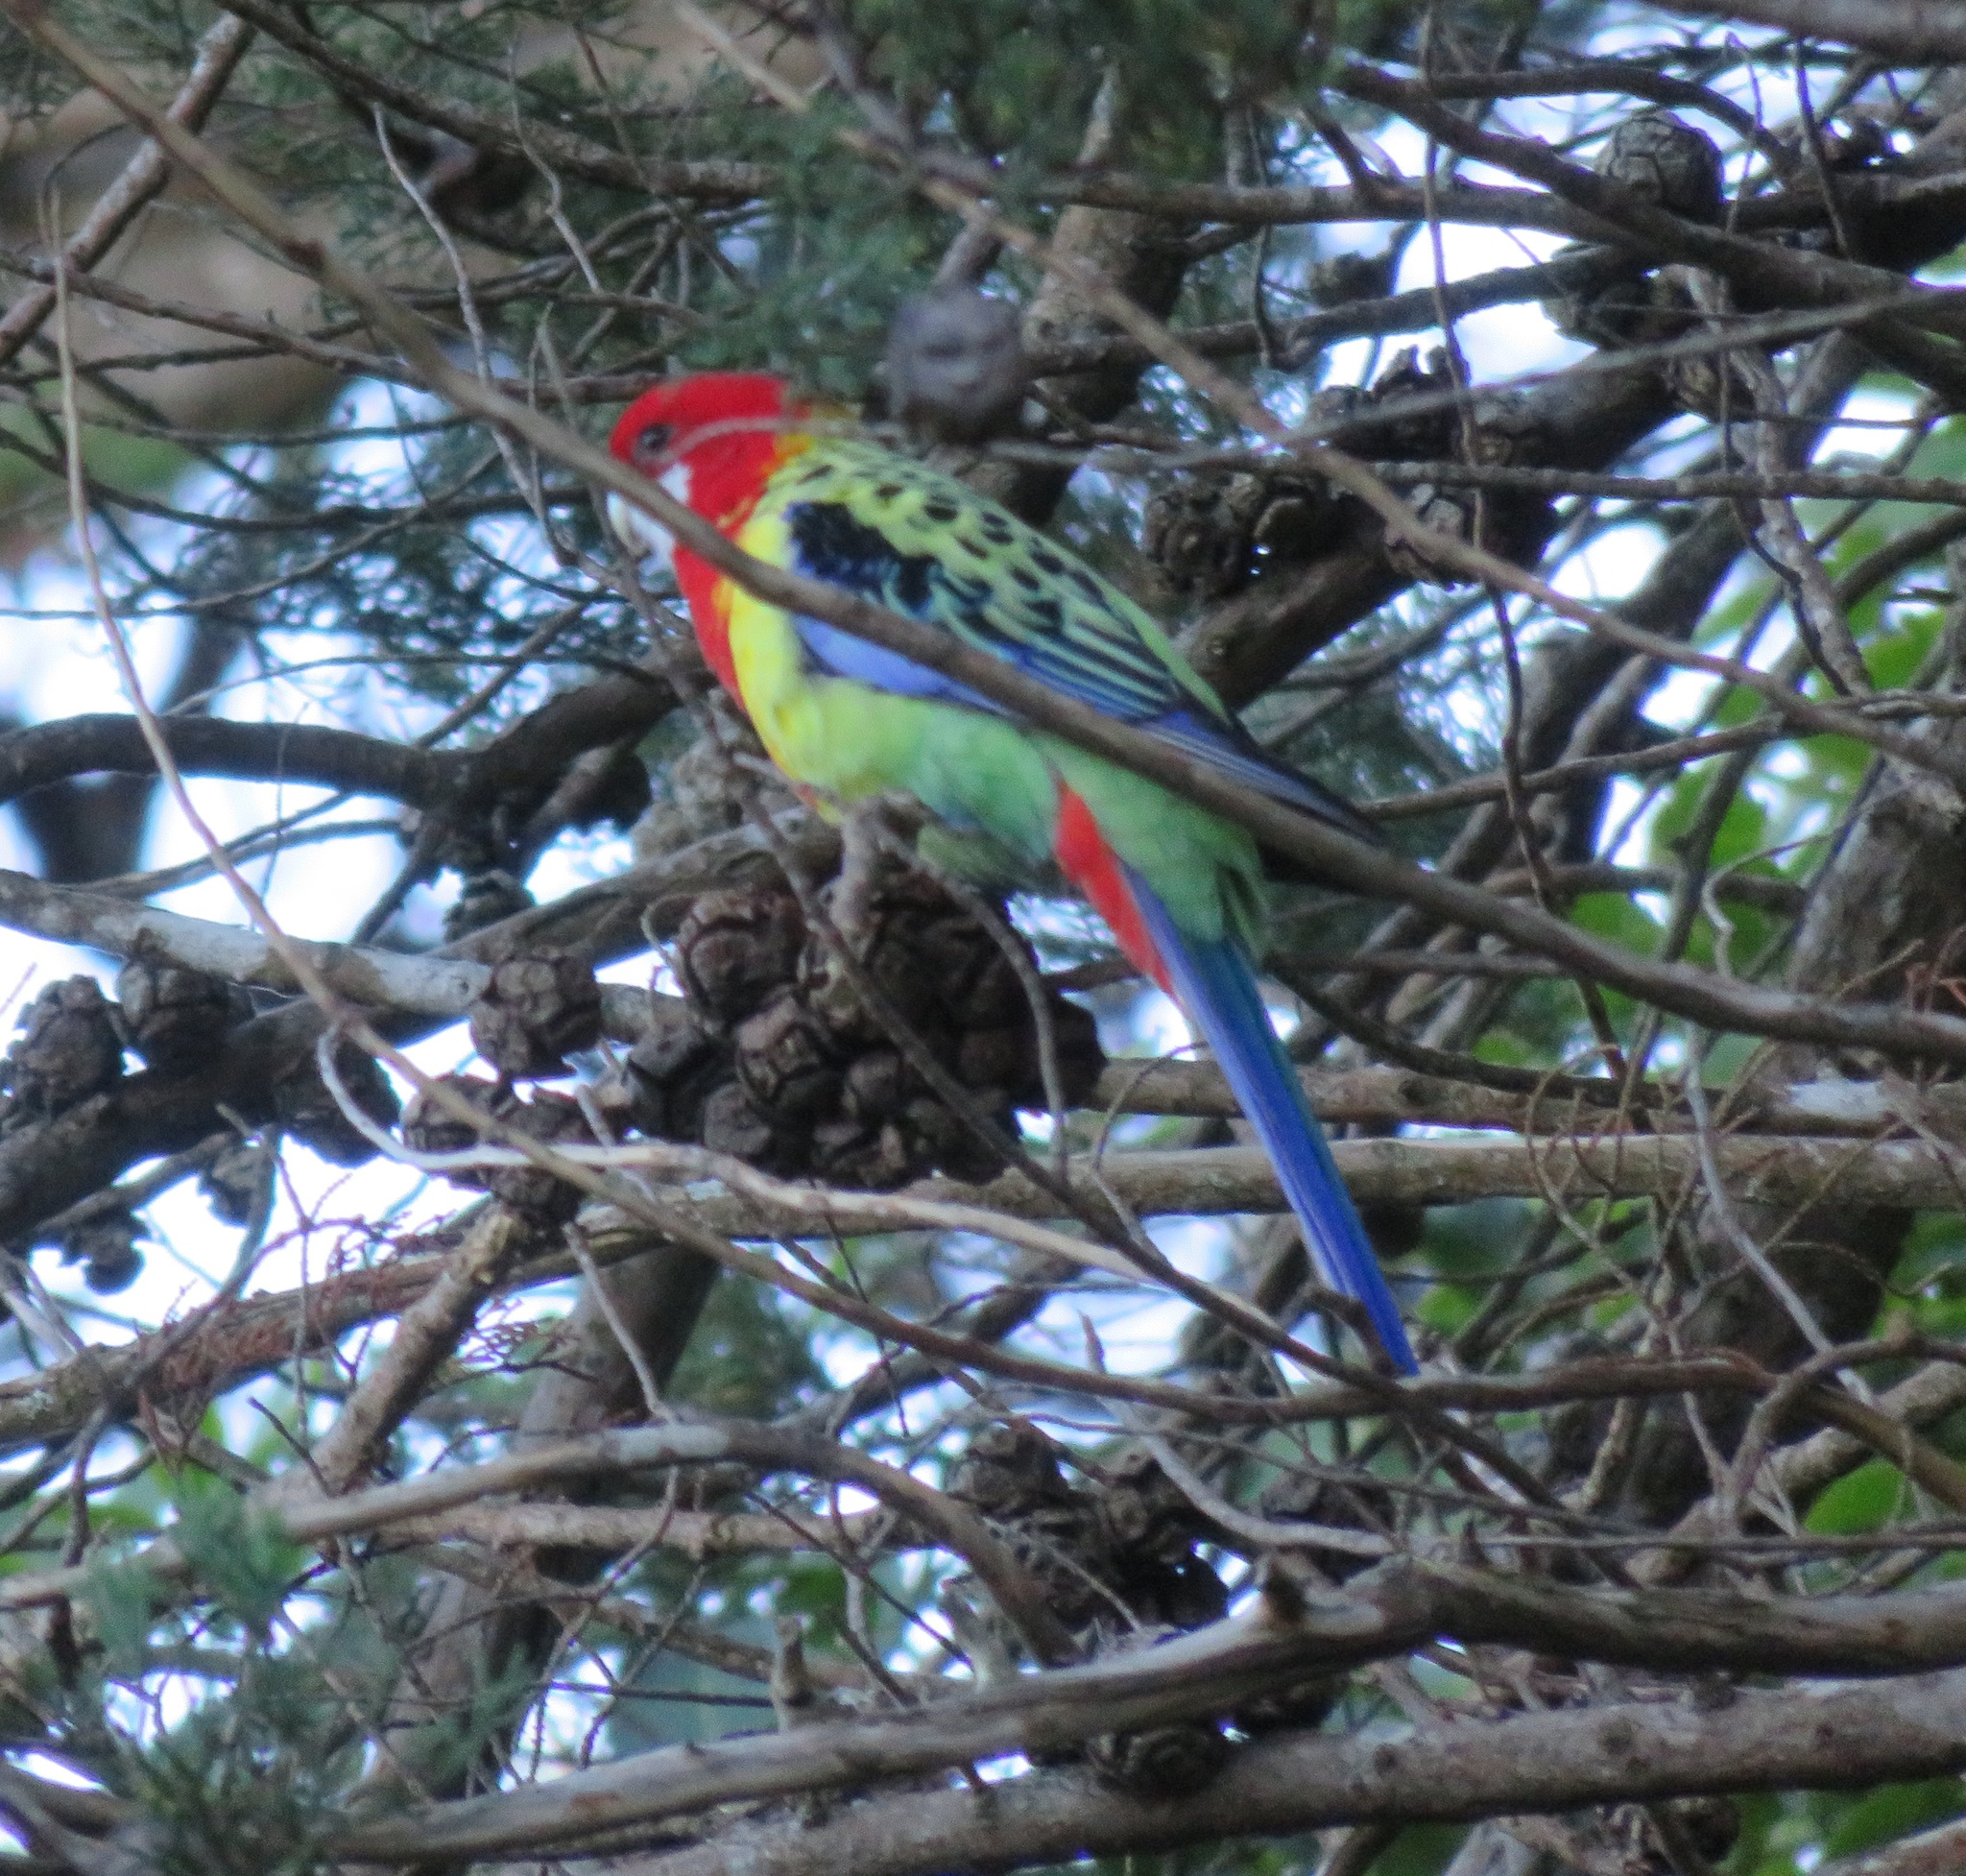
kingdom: Animalia
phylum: Chordata
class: Aves
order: Psittaciformes
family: Psittacidae
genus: Platycercus
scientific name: Platycercus eximius
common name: Eastern rosella
